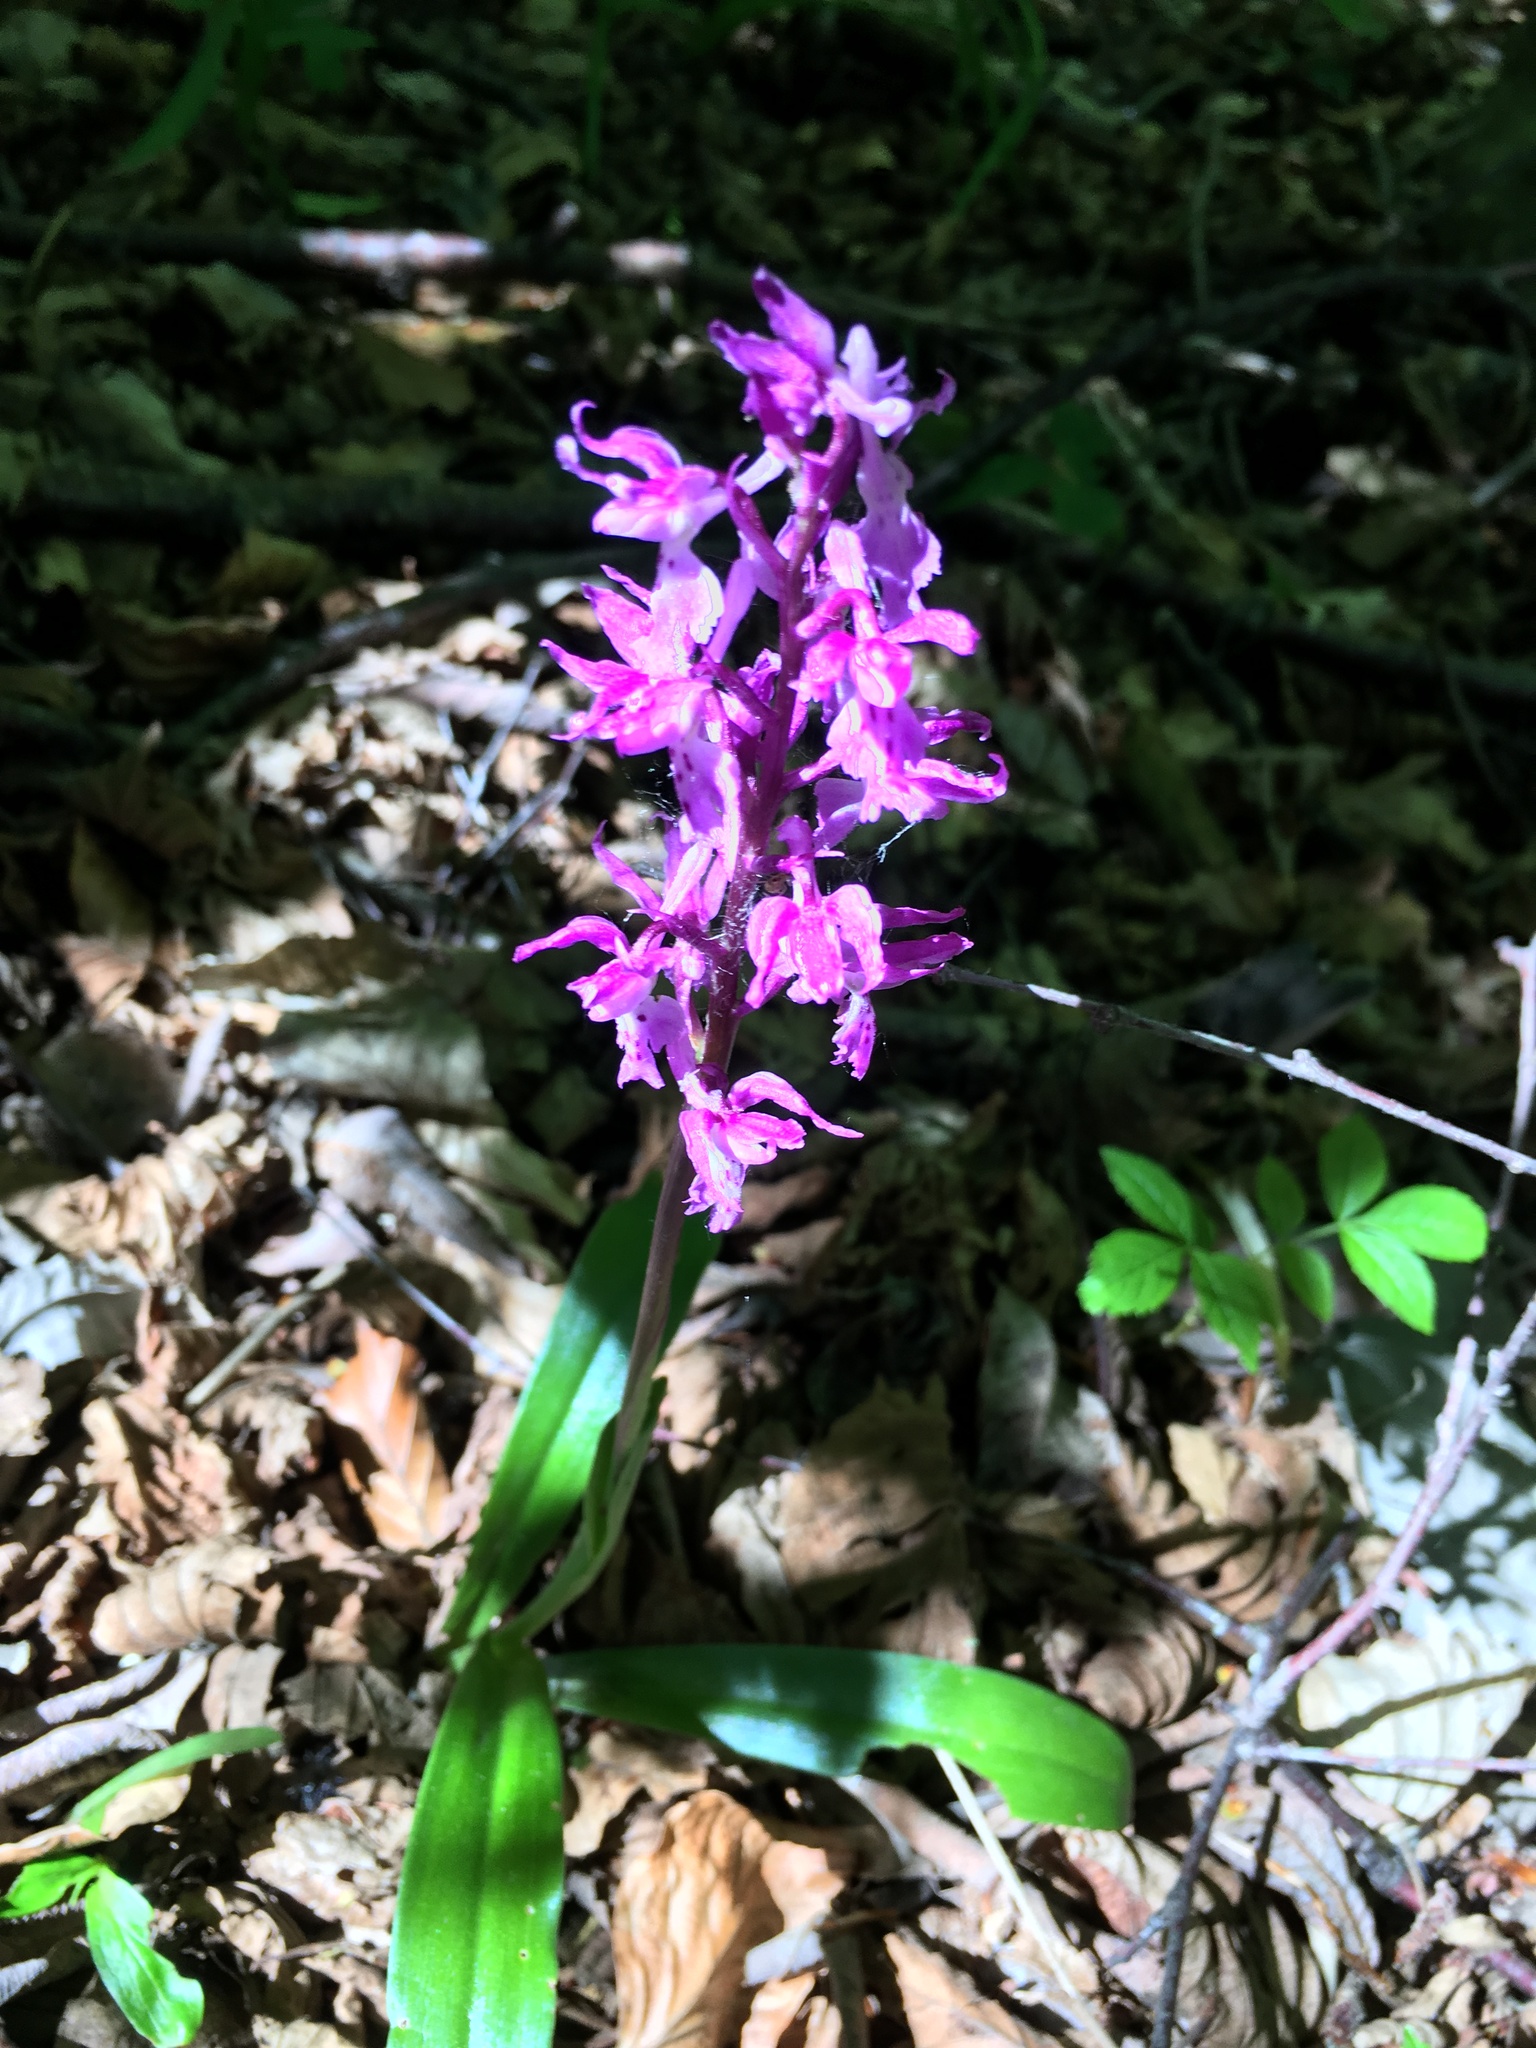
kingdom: Plantae
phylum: Tracheophyta
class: Liliopsida
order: Asparagales
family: Orchidaceae
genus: Orchis
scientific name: Orchis mascula
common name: Early-purple orchid
